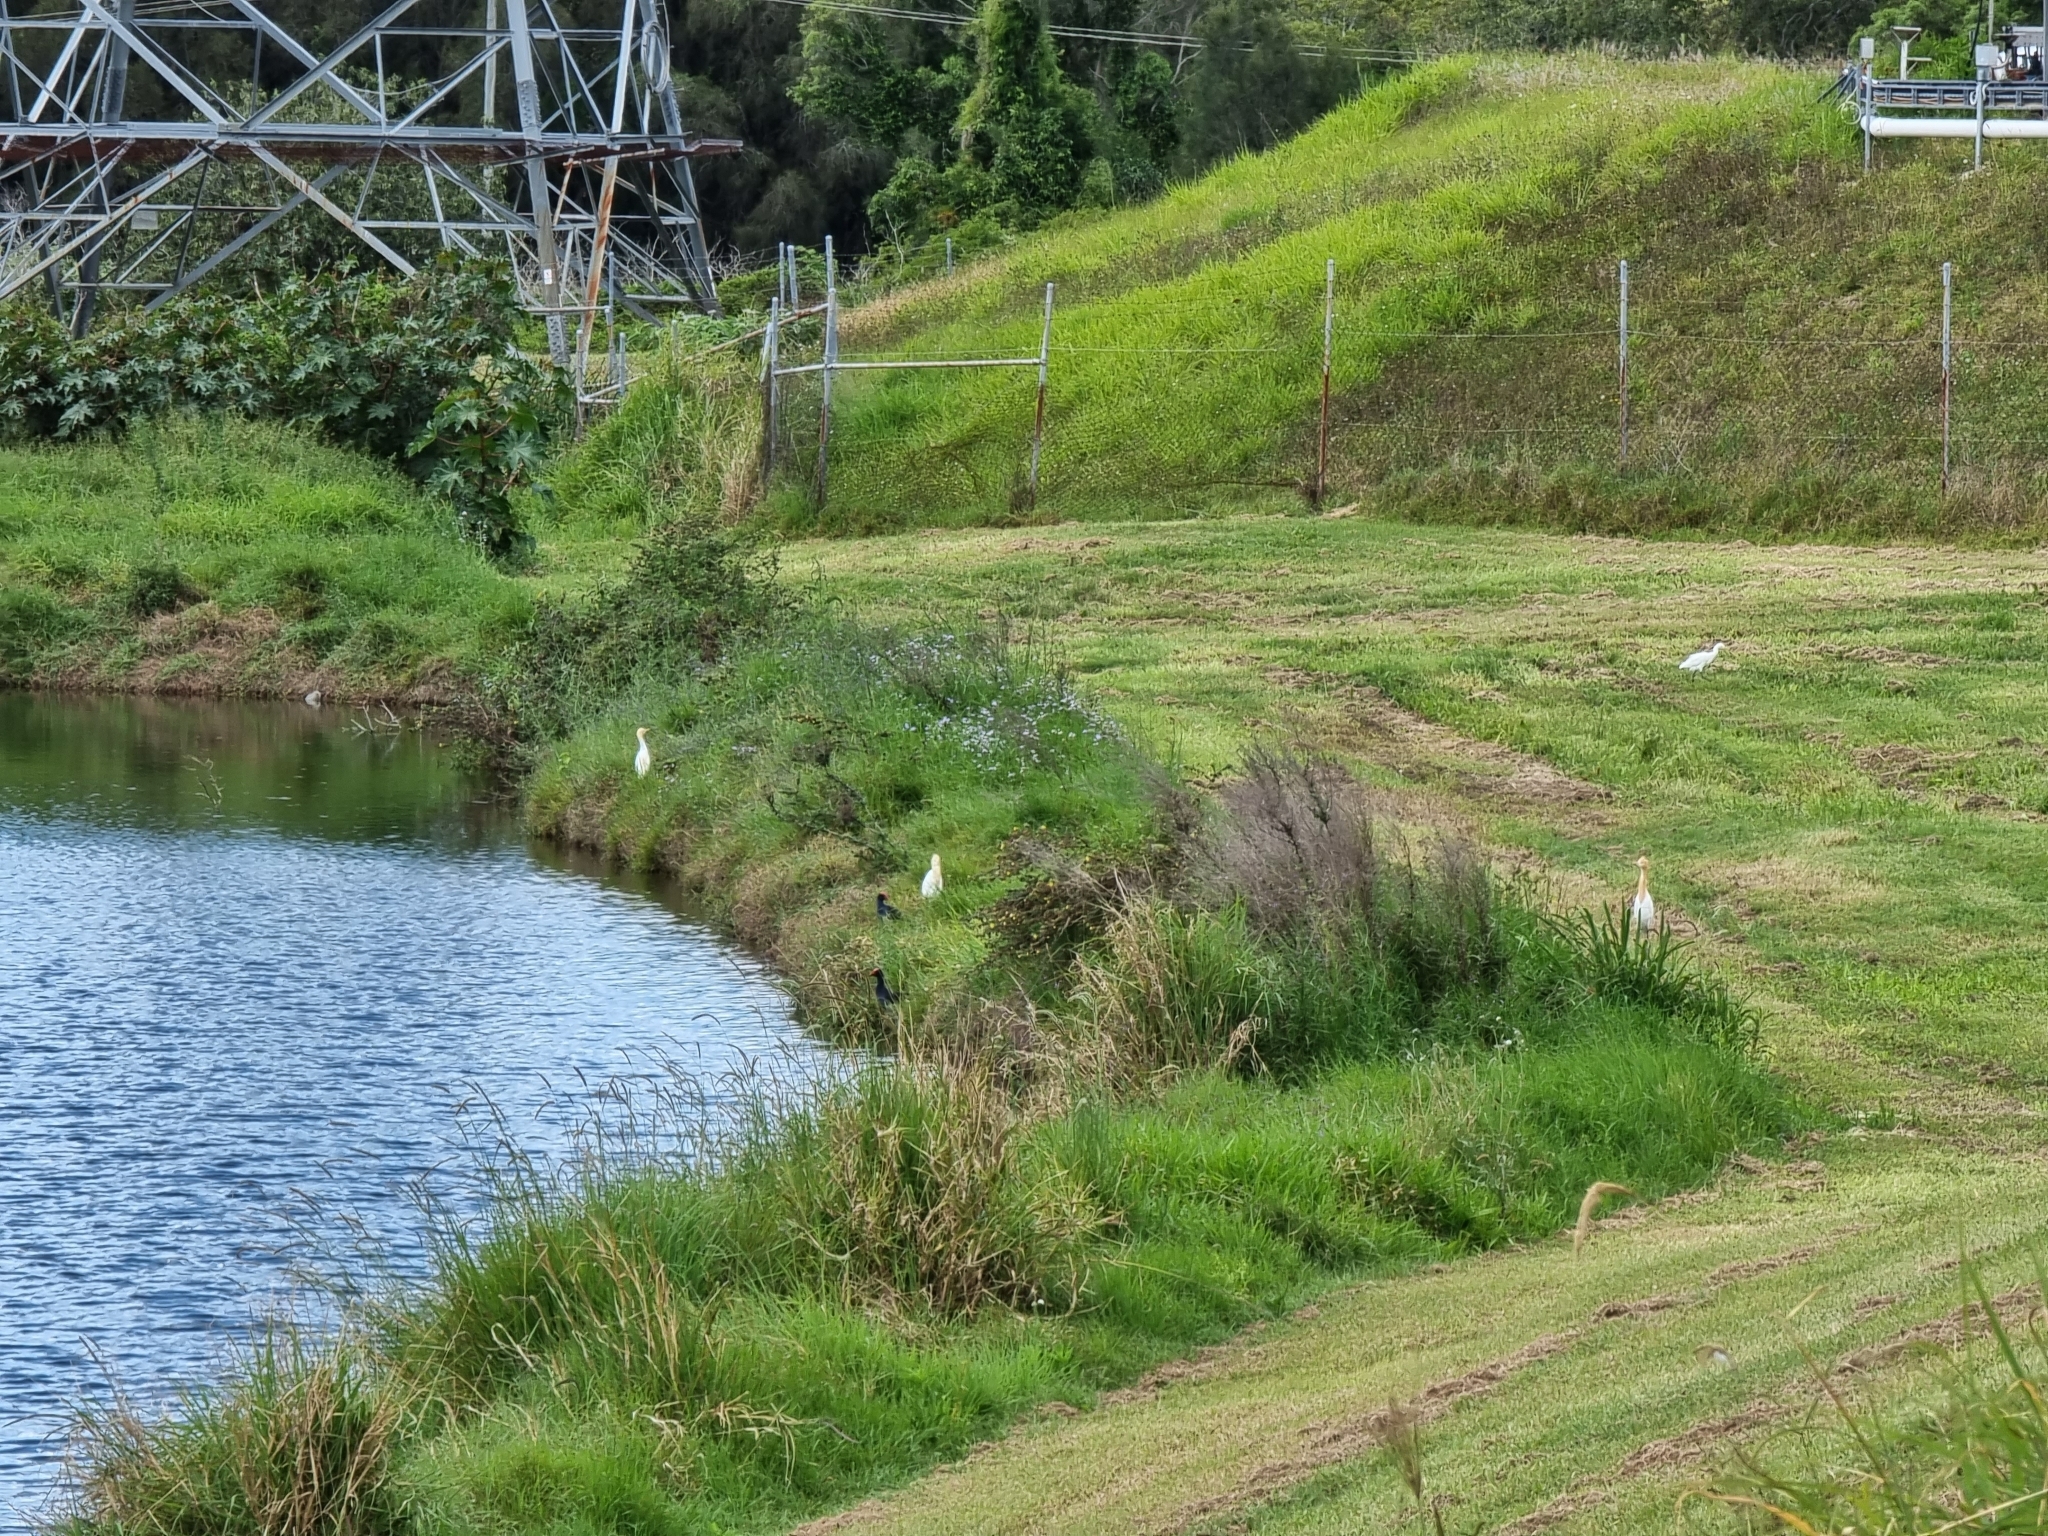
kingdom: Animalia
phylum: Chordata
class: Aves
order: Pelecaniformes
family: Ardeidae
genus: Bubulcus
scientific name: Bubulcus coromandus
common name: Eastern cattle egret
